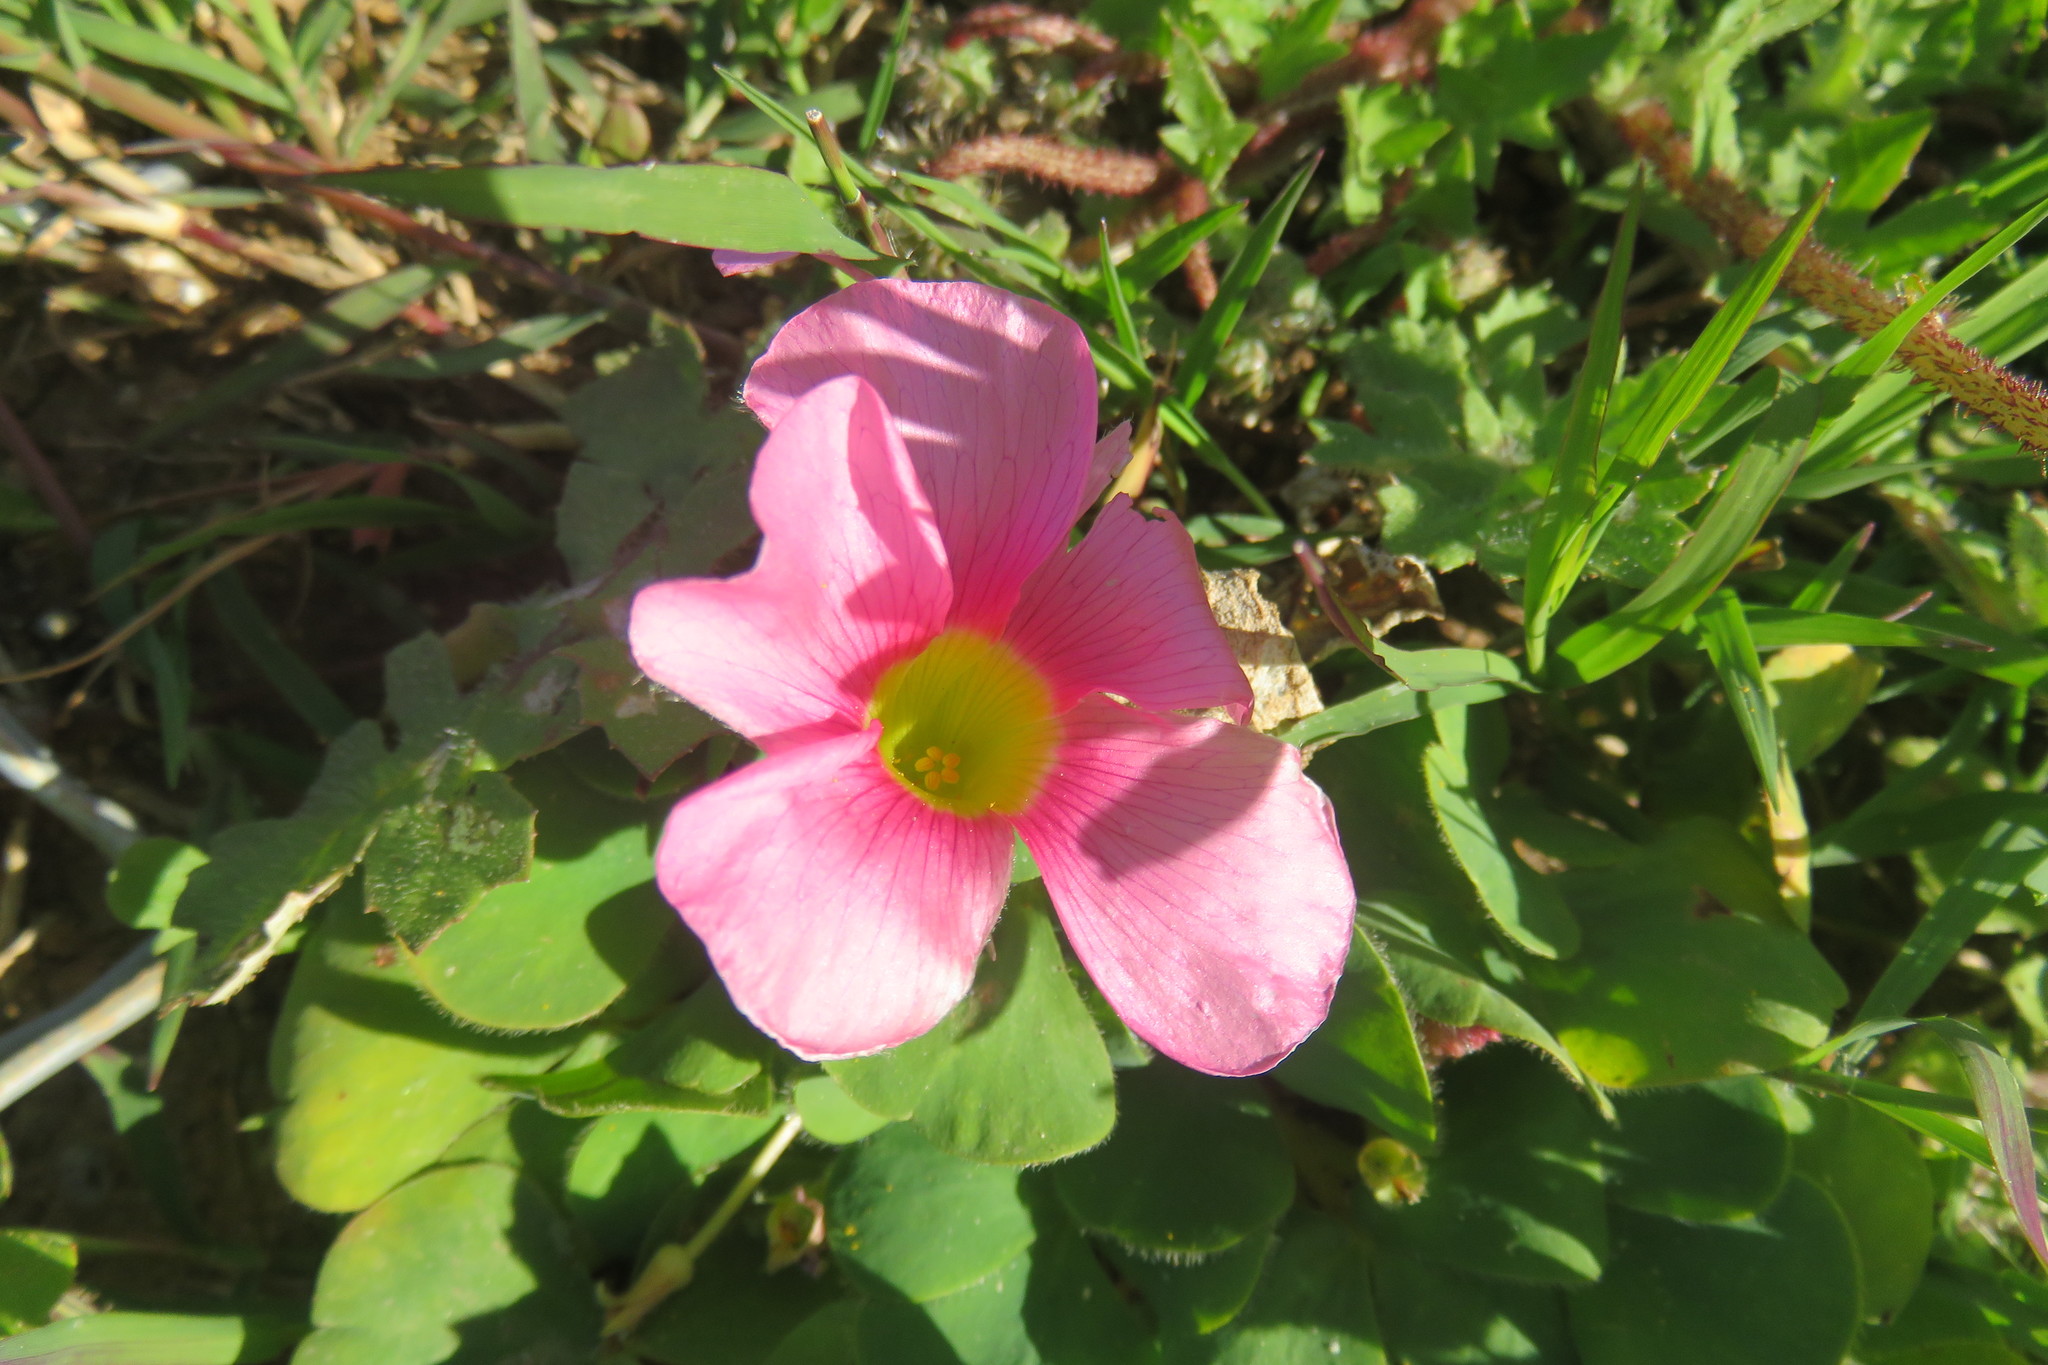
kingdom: Plantae
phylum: Tracheophyta
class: Magnoliopsida
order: Oxalidales
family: Oxalidaceae
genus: Oxalis
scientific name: Oxalis purpurea
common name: Purple woodsorrel
